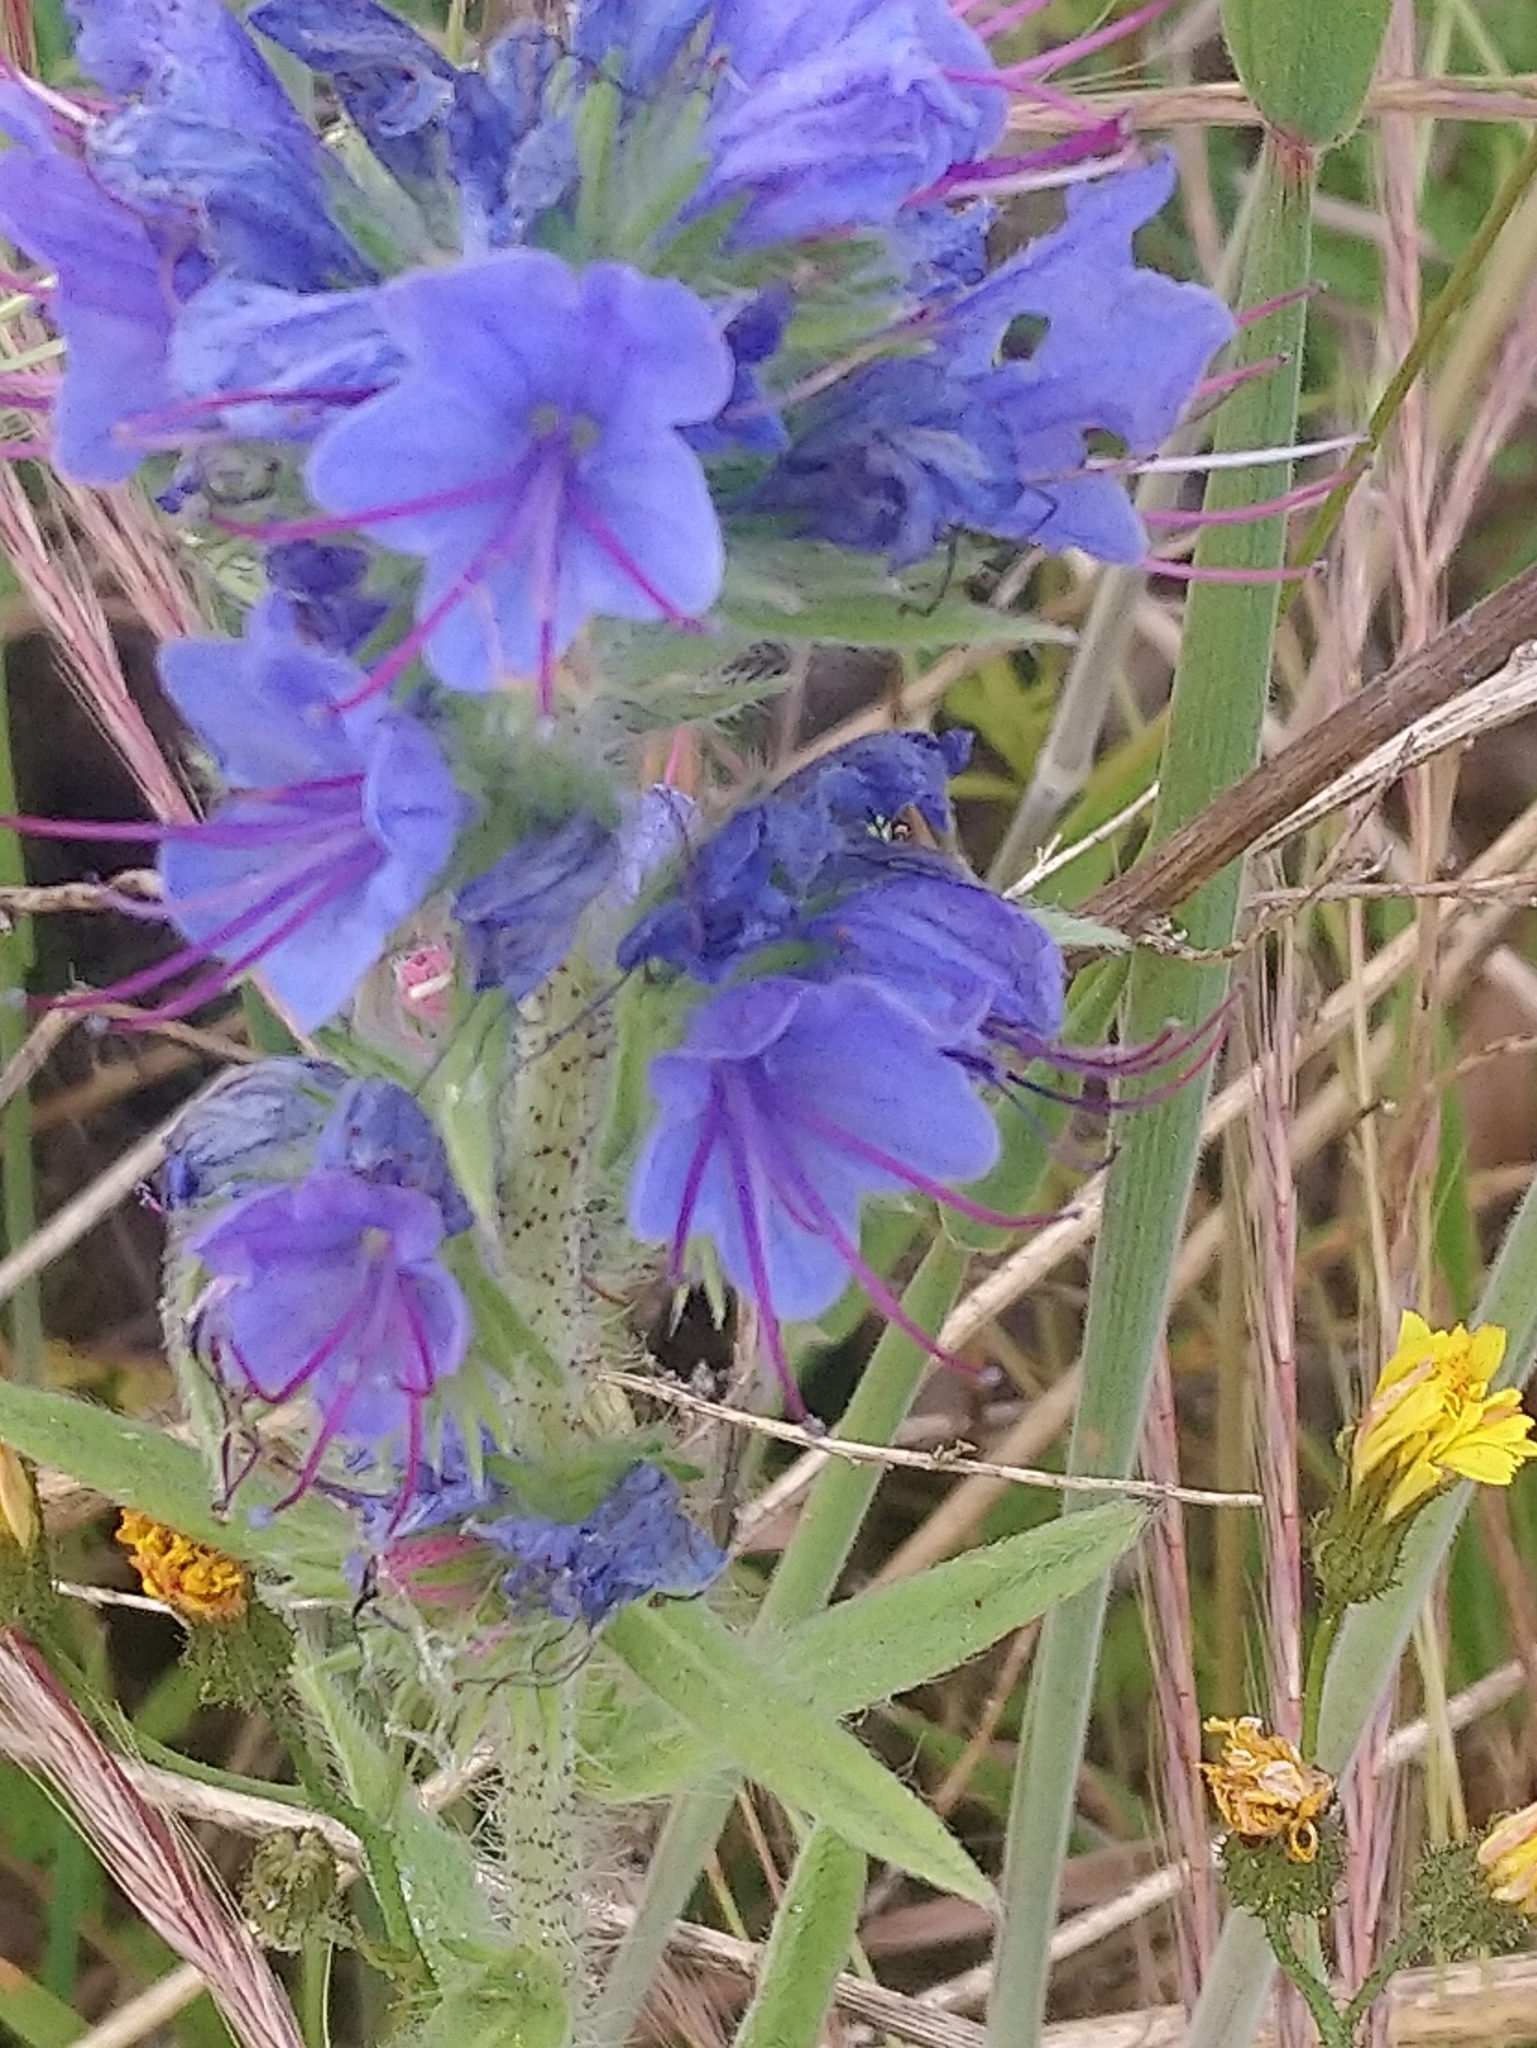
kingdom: Plantae
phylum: Tracheophyta
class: Magnoliopsida
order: Boraginales
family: Boraginaceae
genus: Echium
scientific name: Echium vulgare
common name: Common viper's bugloss
